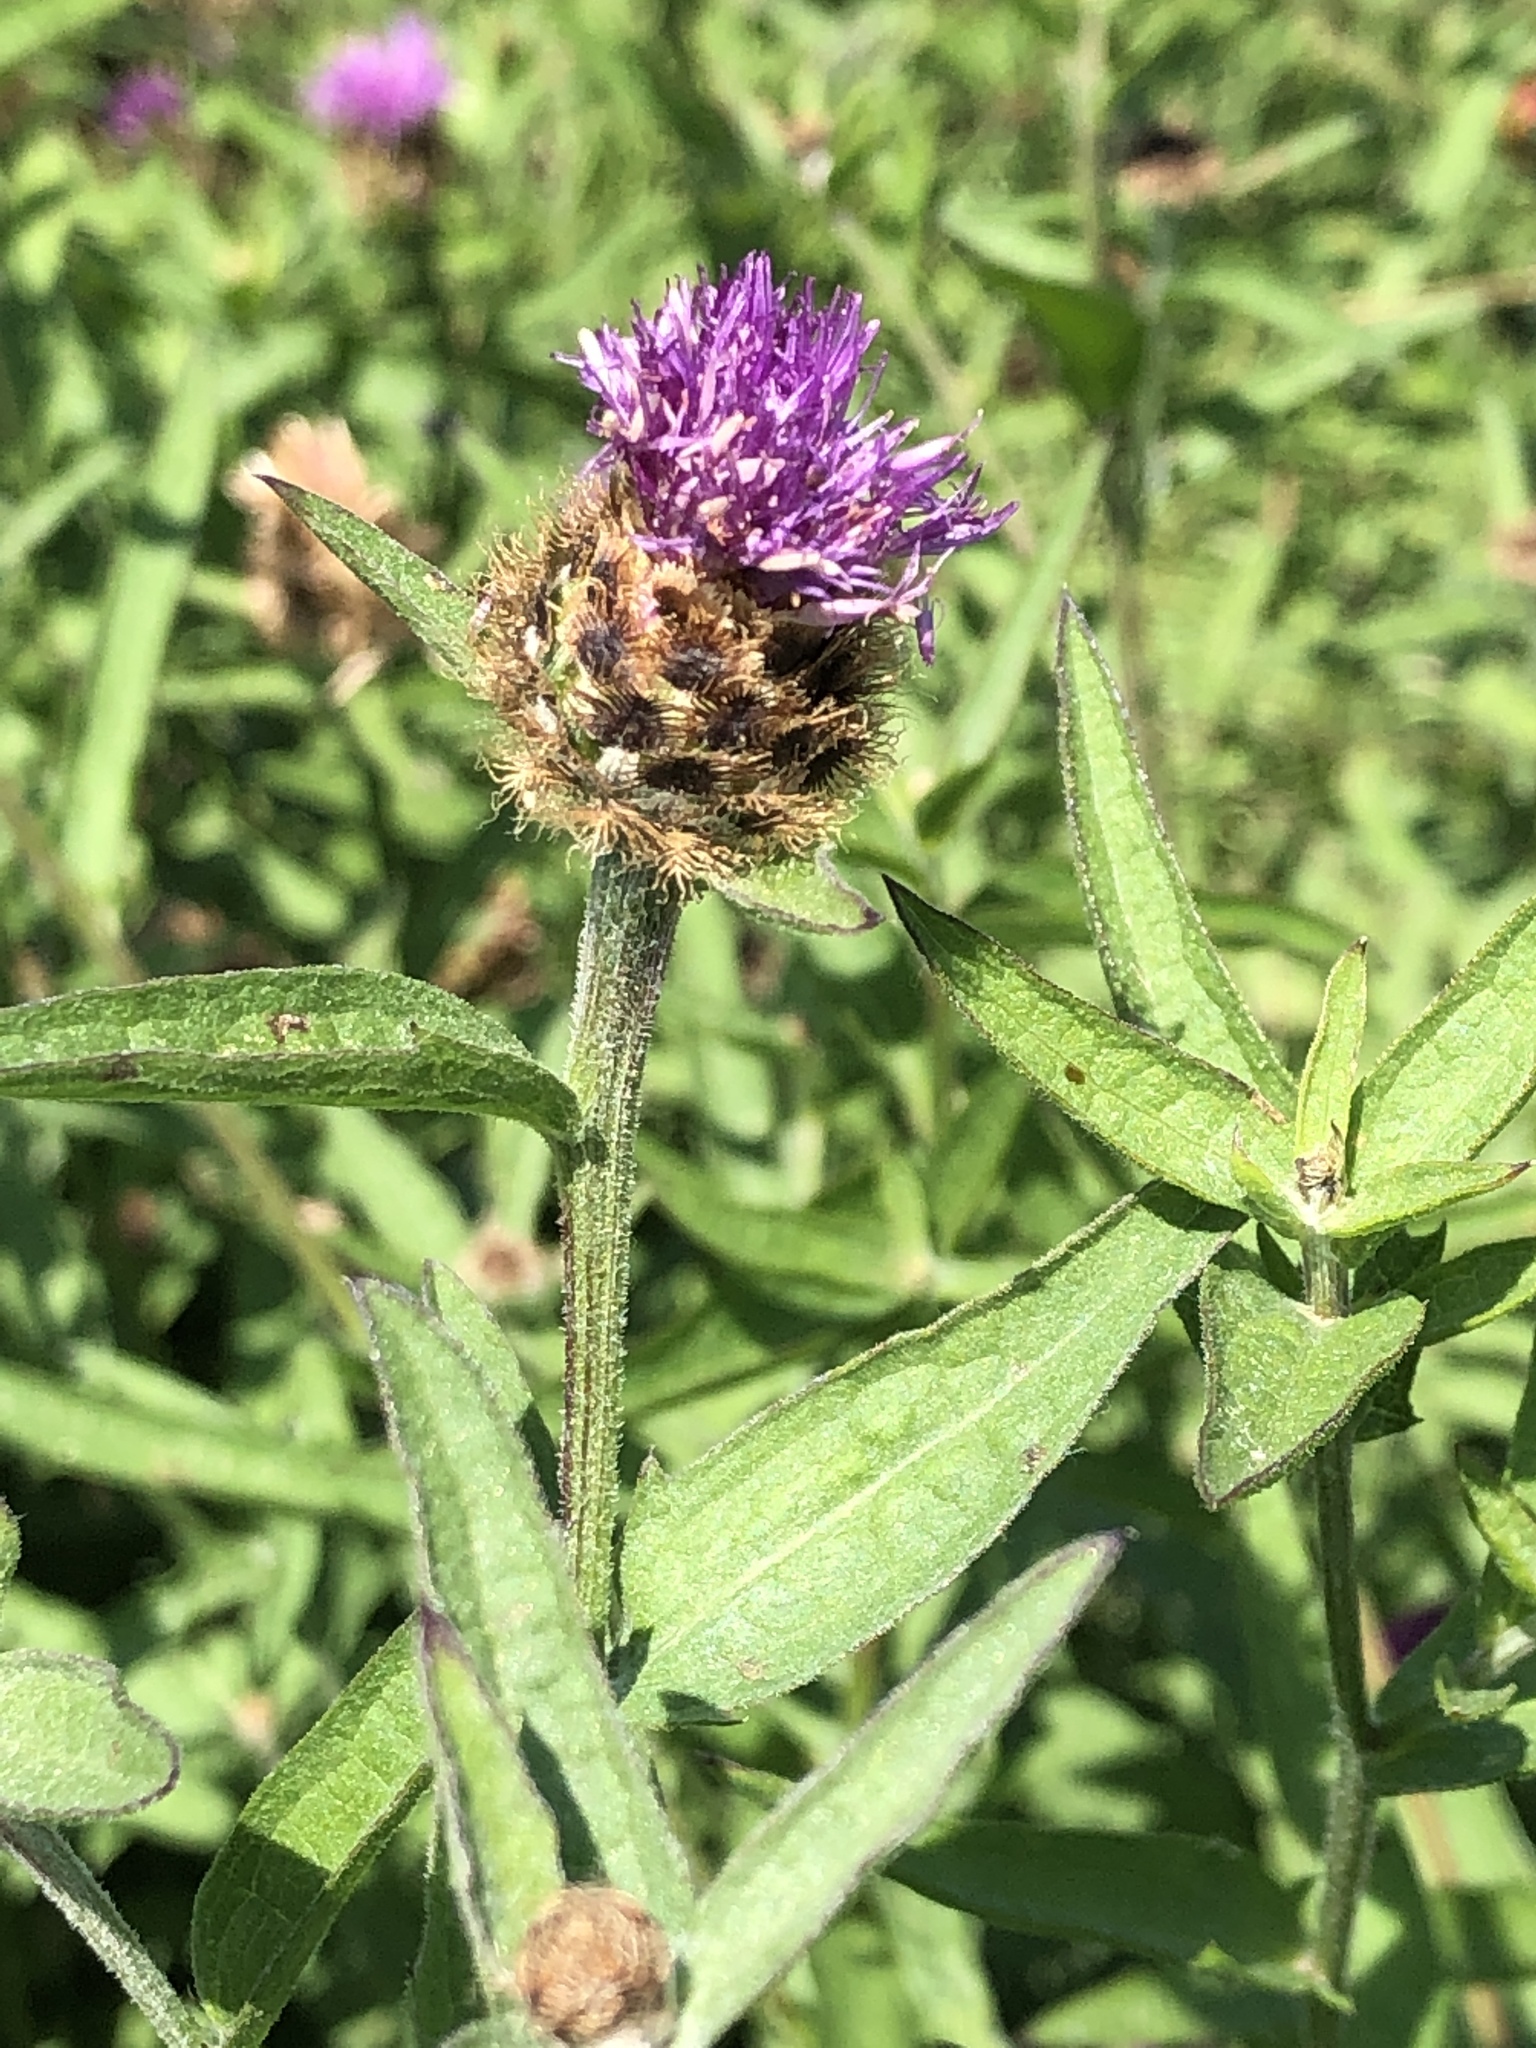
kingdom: Plantae
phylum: Tracheophyta
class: Magnoliopsida
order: Asterales
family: Asteraceae
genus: Centaurea
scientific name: Centaurea nigra
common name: Lesser knapweed
